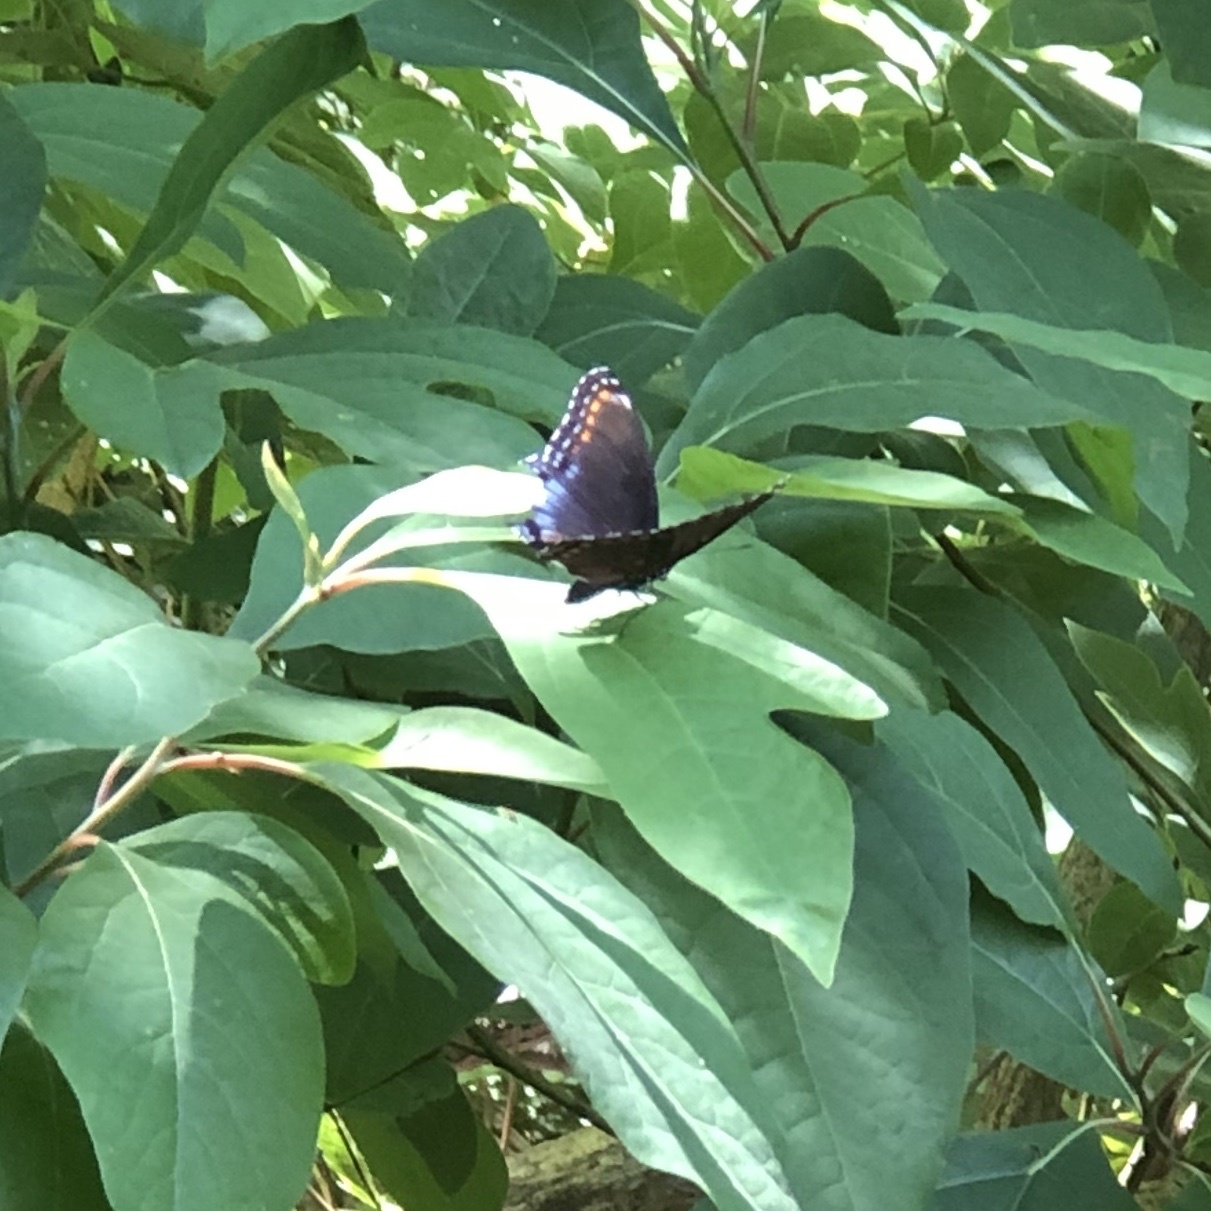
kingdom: Animalia
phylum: Arthropoda
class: Insecta
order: Lepidoptera
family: Nymphalidae
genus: Limenitis
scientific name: Limenitis arthemis
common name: Red-spotted admiral
